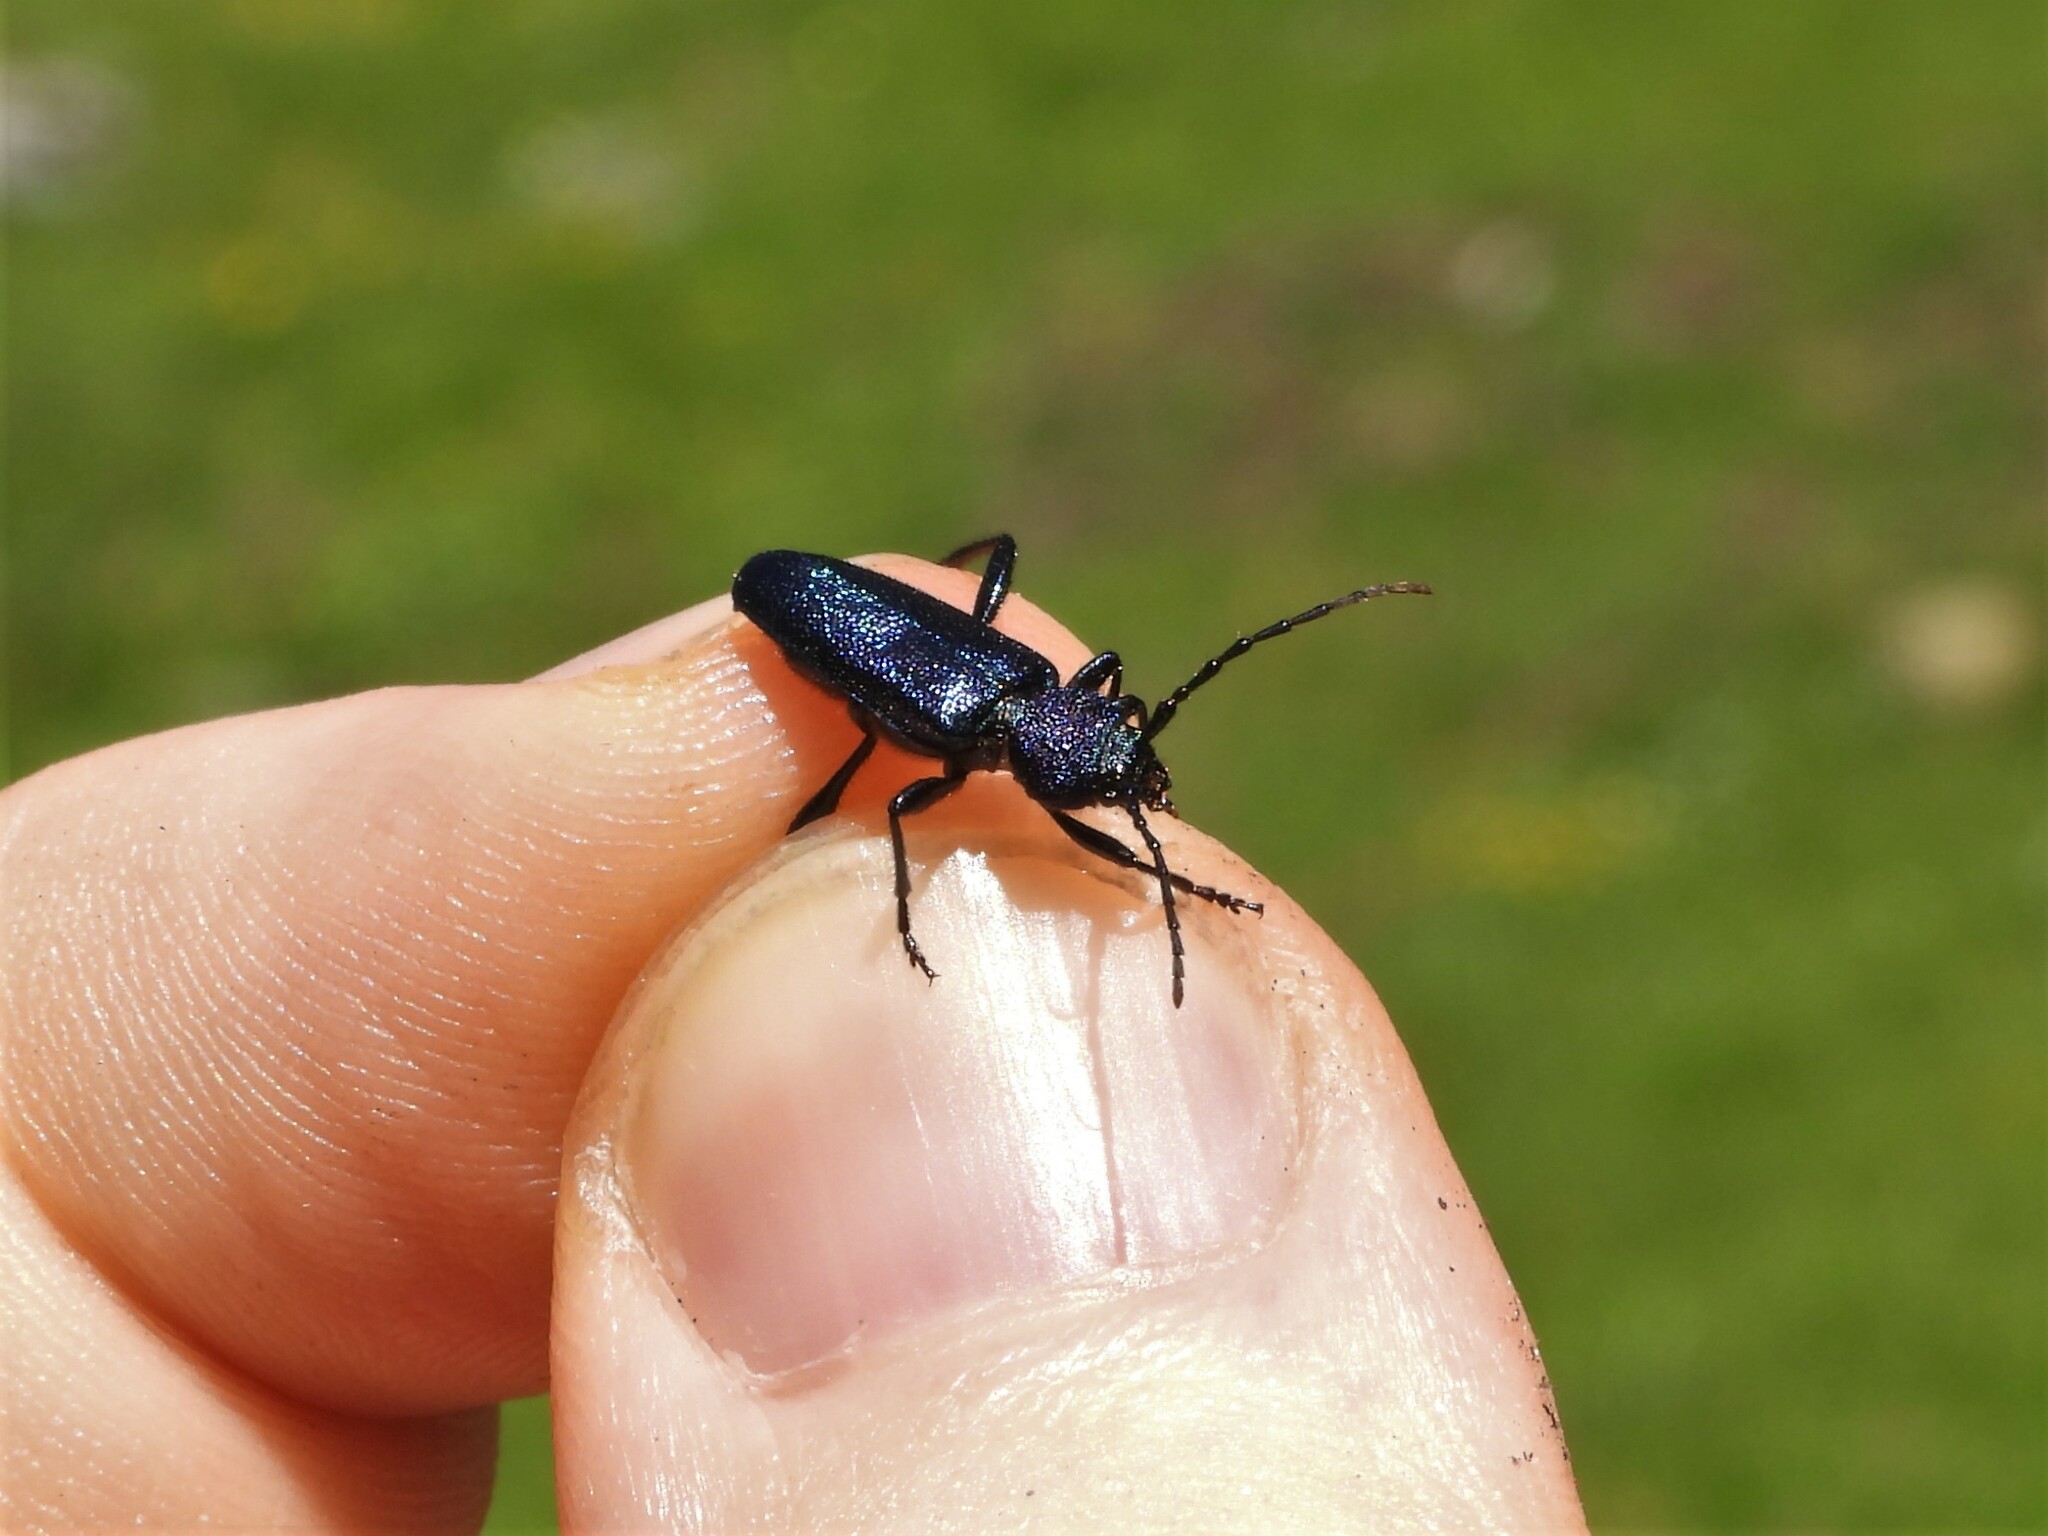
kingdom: Animalia
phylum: Arthropoda
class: Insecta
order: Coleoptera
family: Cerambycidae
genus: Callidium
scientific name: Callidium violaceum
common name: Violet tanbark beetle
